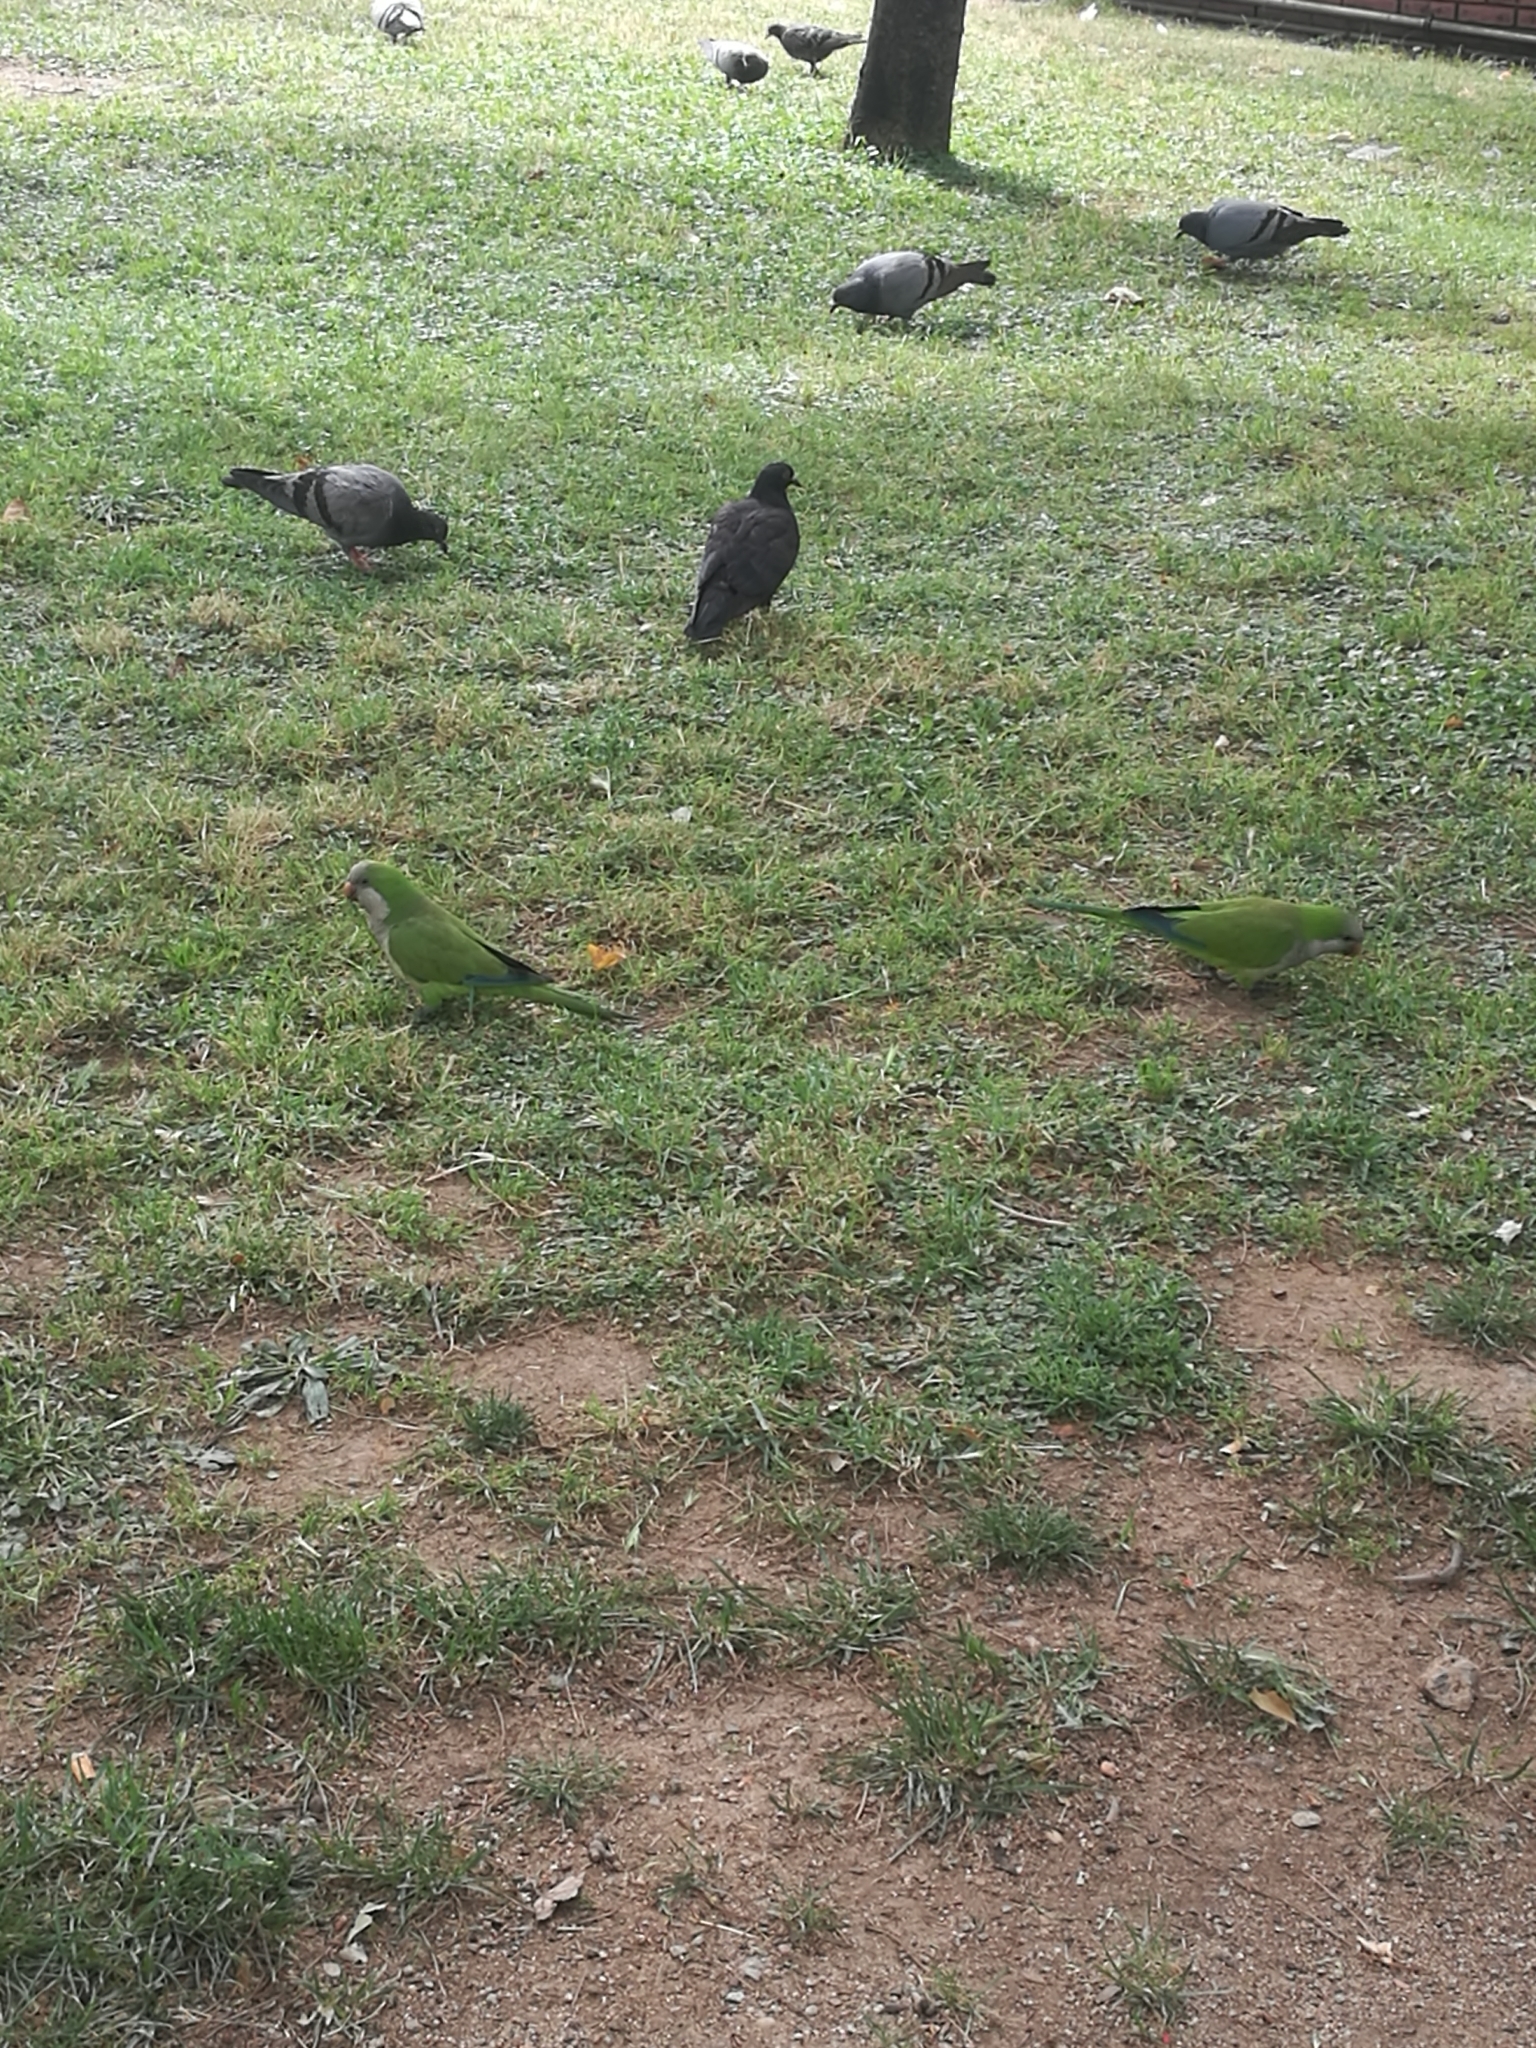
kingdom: Animalia
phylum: Chordata
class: Aves
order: Psittaciformes
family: Psittacidae
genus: Myiopsitta
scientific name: Myiopsitta monachus
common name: Monk parakeet
